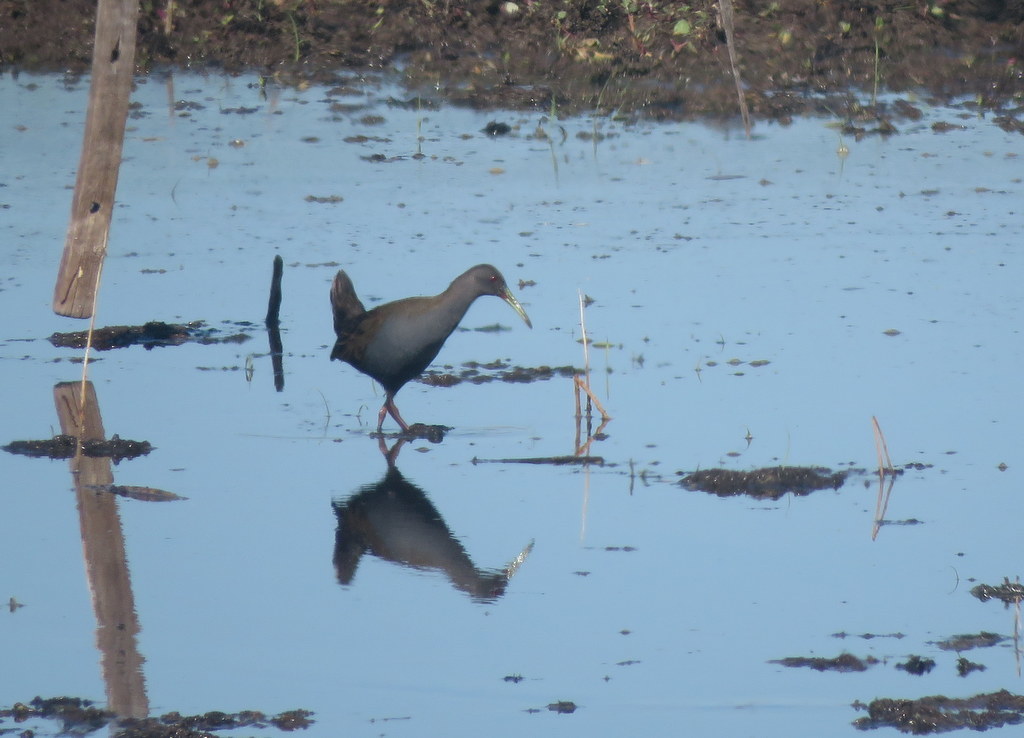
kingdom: Animalia
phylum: Chordata
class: Aves
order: Gruiformes
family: Rallidae
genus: Pardirallus
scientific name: Pardirallus sanguinolentus
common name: Plumbeous rail
